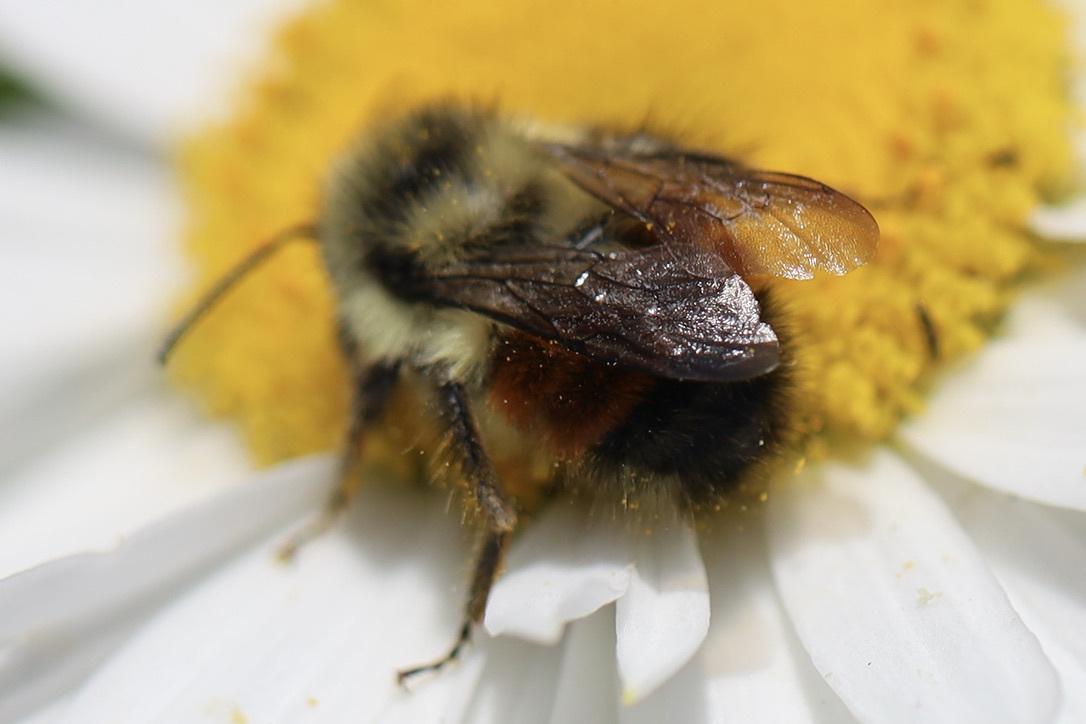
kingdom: Animalia
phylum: Arthropoda
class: Insecta
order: Hymenoptera
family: Apidae
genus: Bombus
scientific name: Bombus melanopygus
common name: Black tail bumble bee
